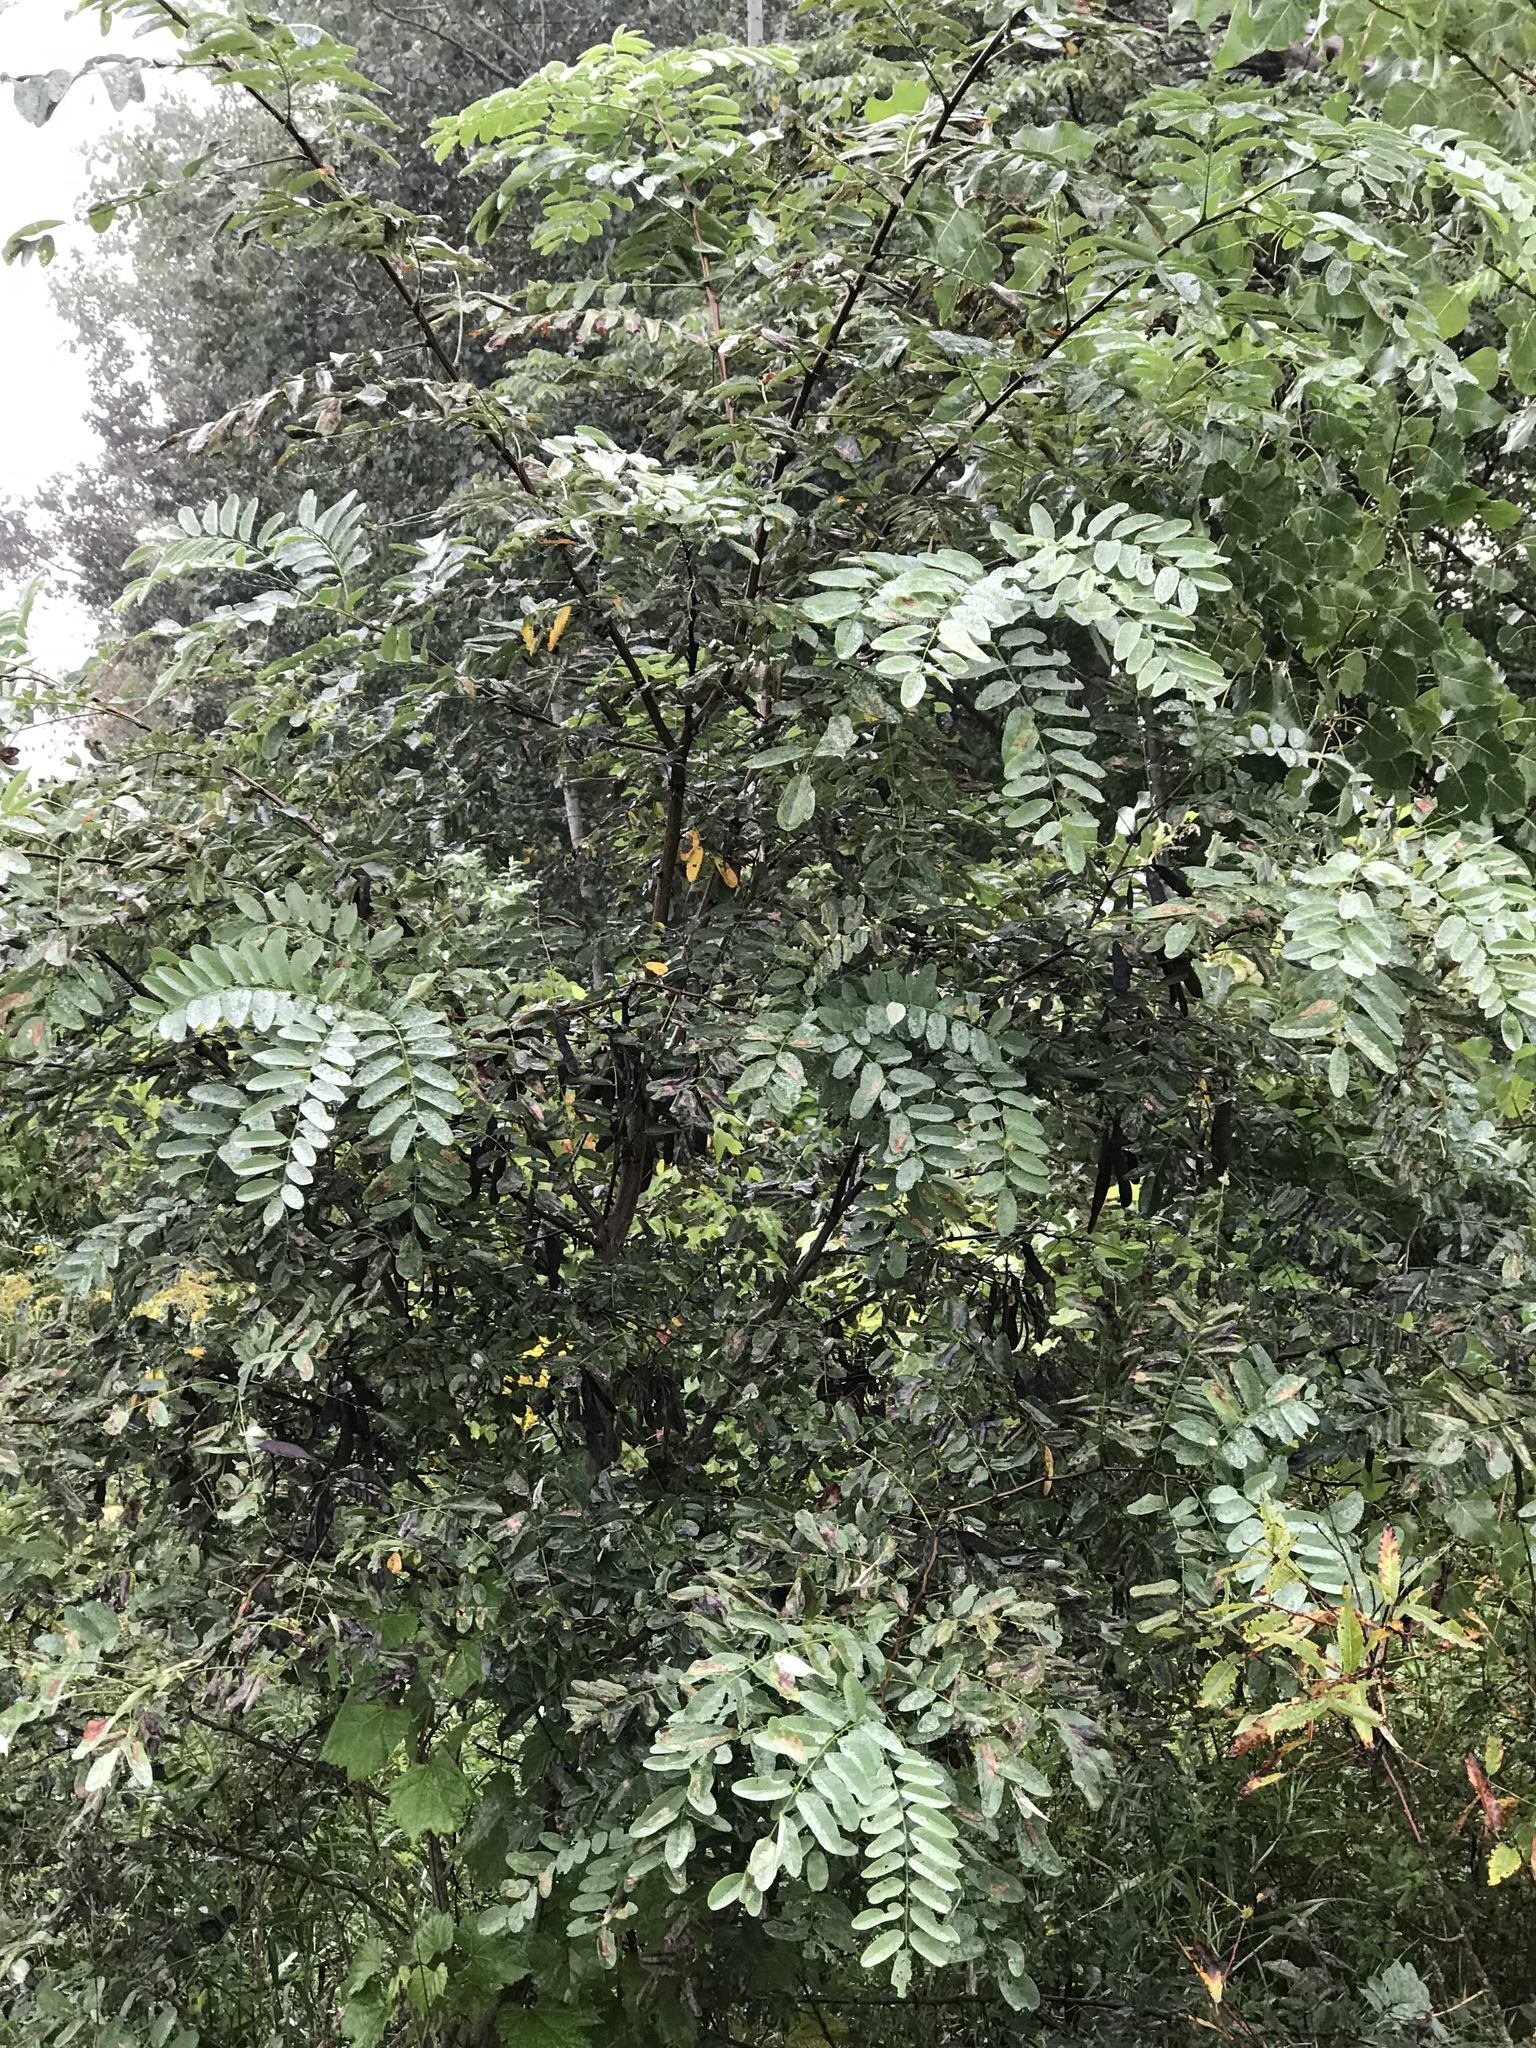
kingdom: Plantae
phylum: Tracheophyta
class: Magnoliopsida
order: Fabales
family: Fabaceae
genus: Robinia
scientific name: Robinia pseudoacacia
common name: Black locust
